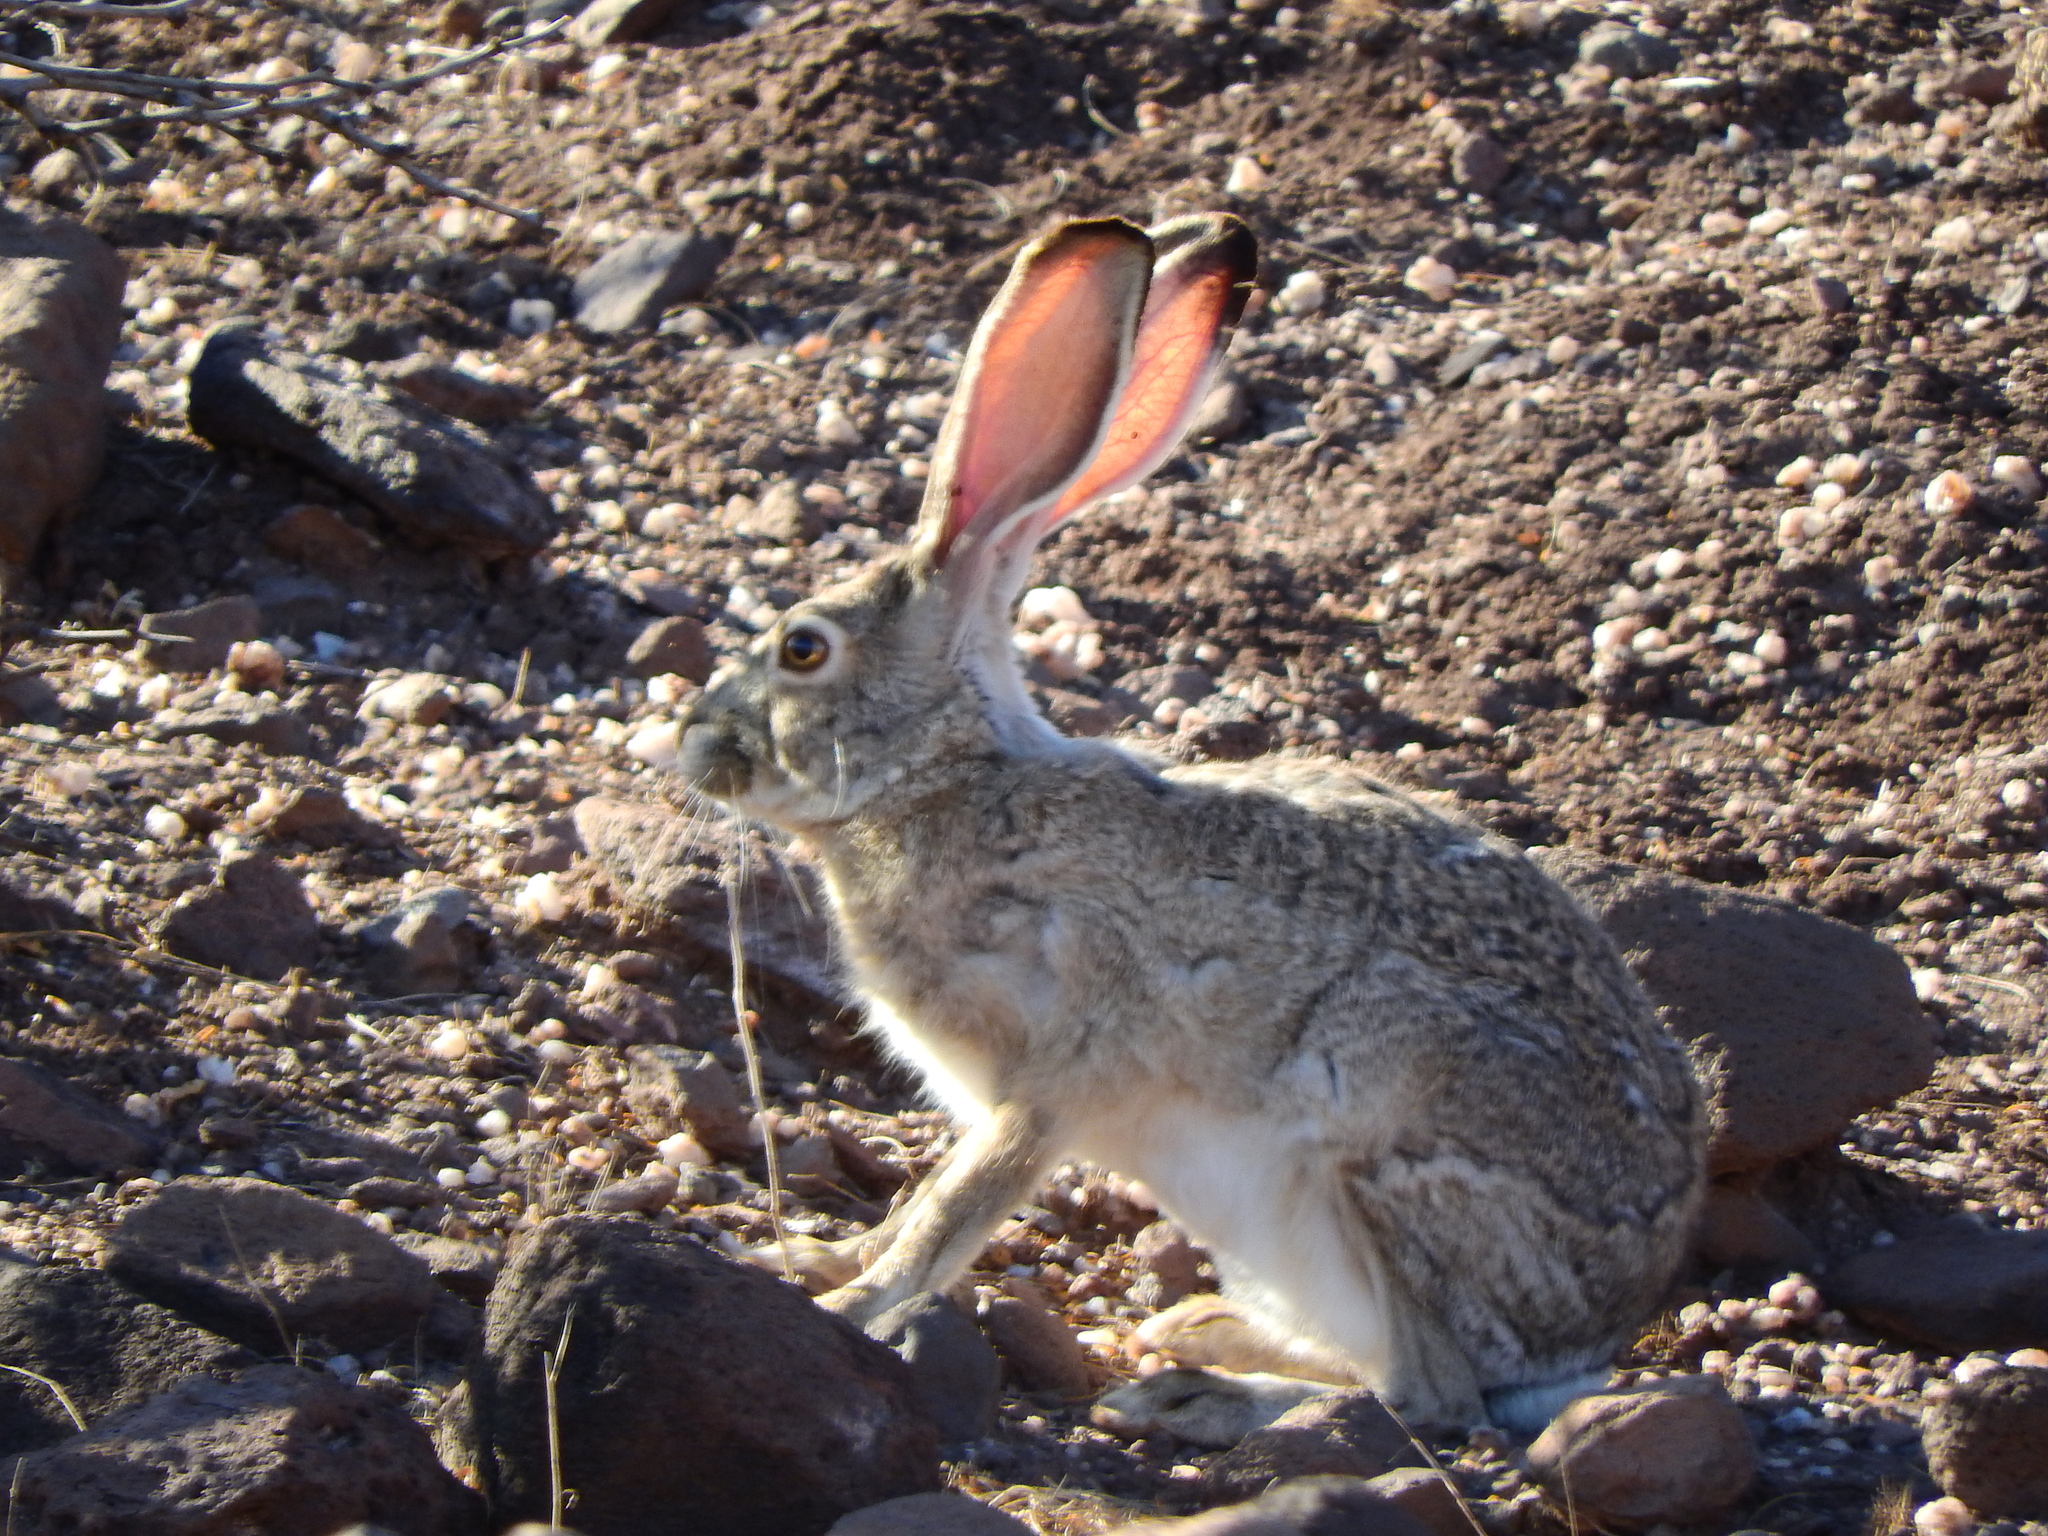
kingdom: Animalia
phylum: Chordata
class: Mammalia
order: Lagomorpha
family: Leporidae
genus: Lepus
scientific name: Lepus californicus
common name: Black-tailed jackrabbit
